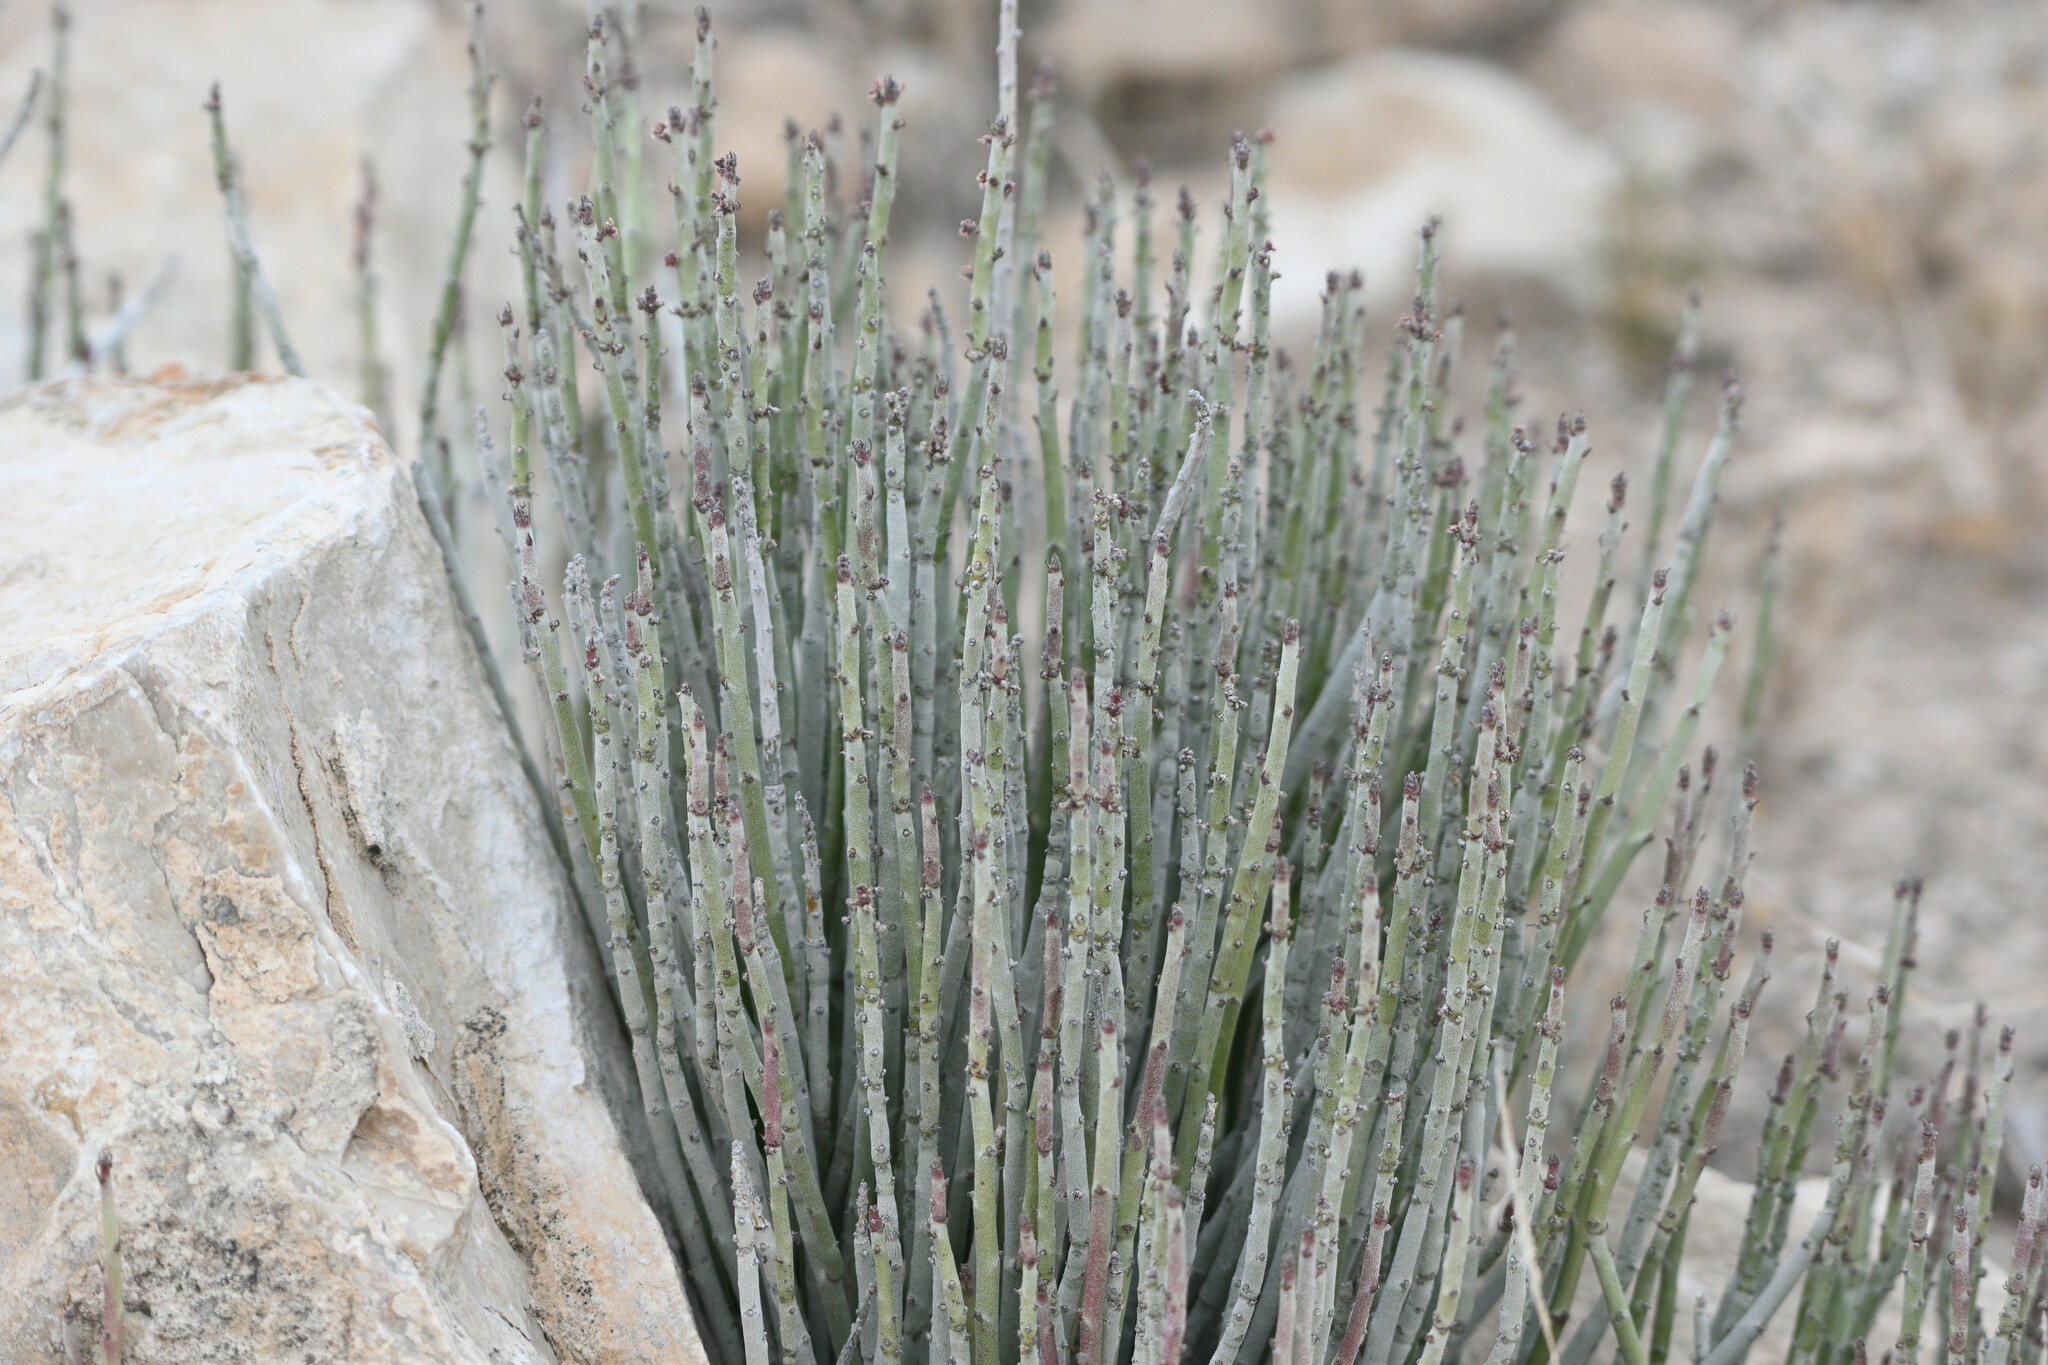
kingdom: Plantae
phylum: Tracheophyta
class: Magnoliopsida
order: Malpighiales
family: Euphorbiaceae
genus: Euphorbia
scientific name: Euphorbia antisyphilitica
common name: Candelilla
